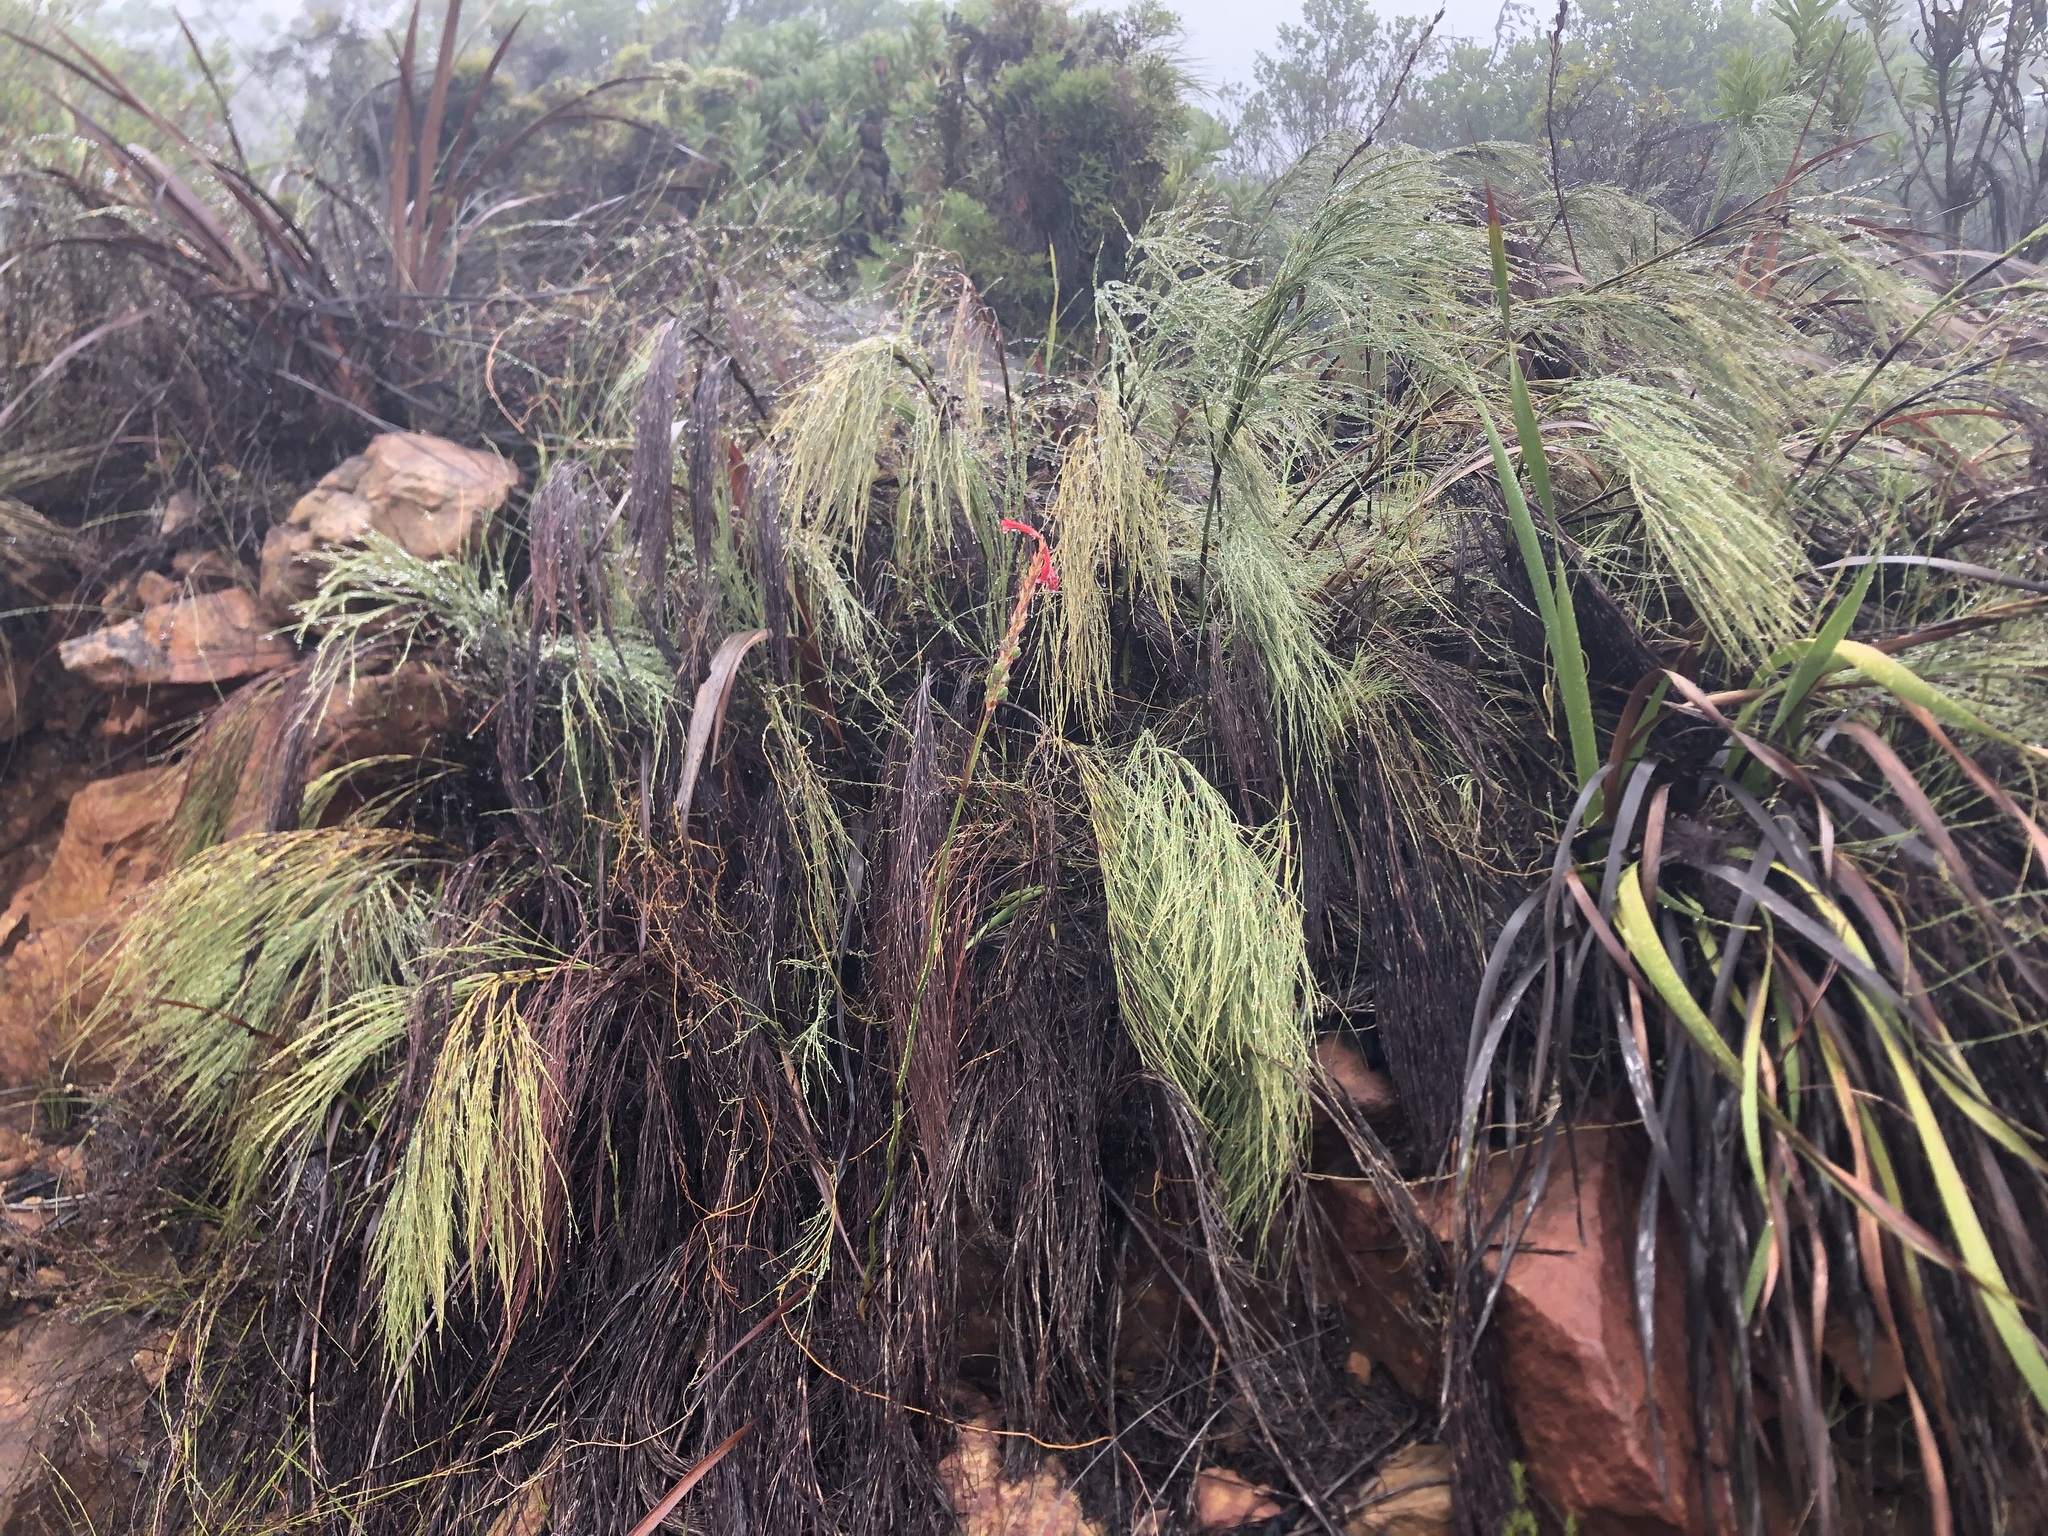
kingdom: Plantae
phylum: Tracheophyta
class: Liliopsida
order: Poales
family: Restionaceae
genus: Cannomois
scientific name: Cannomois virgata
